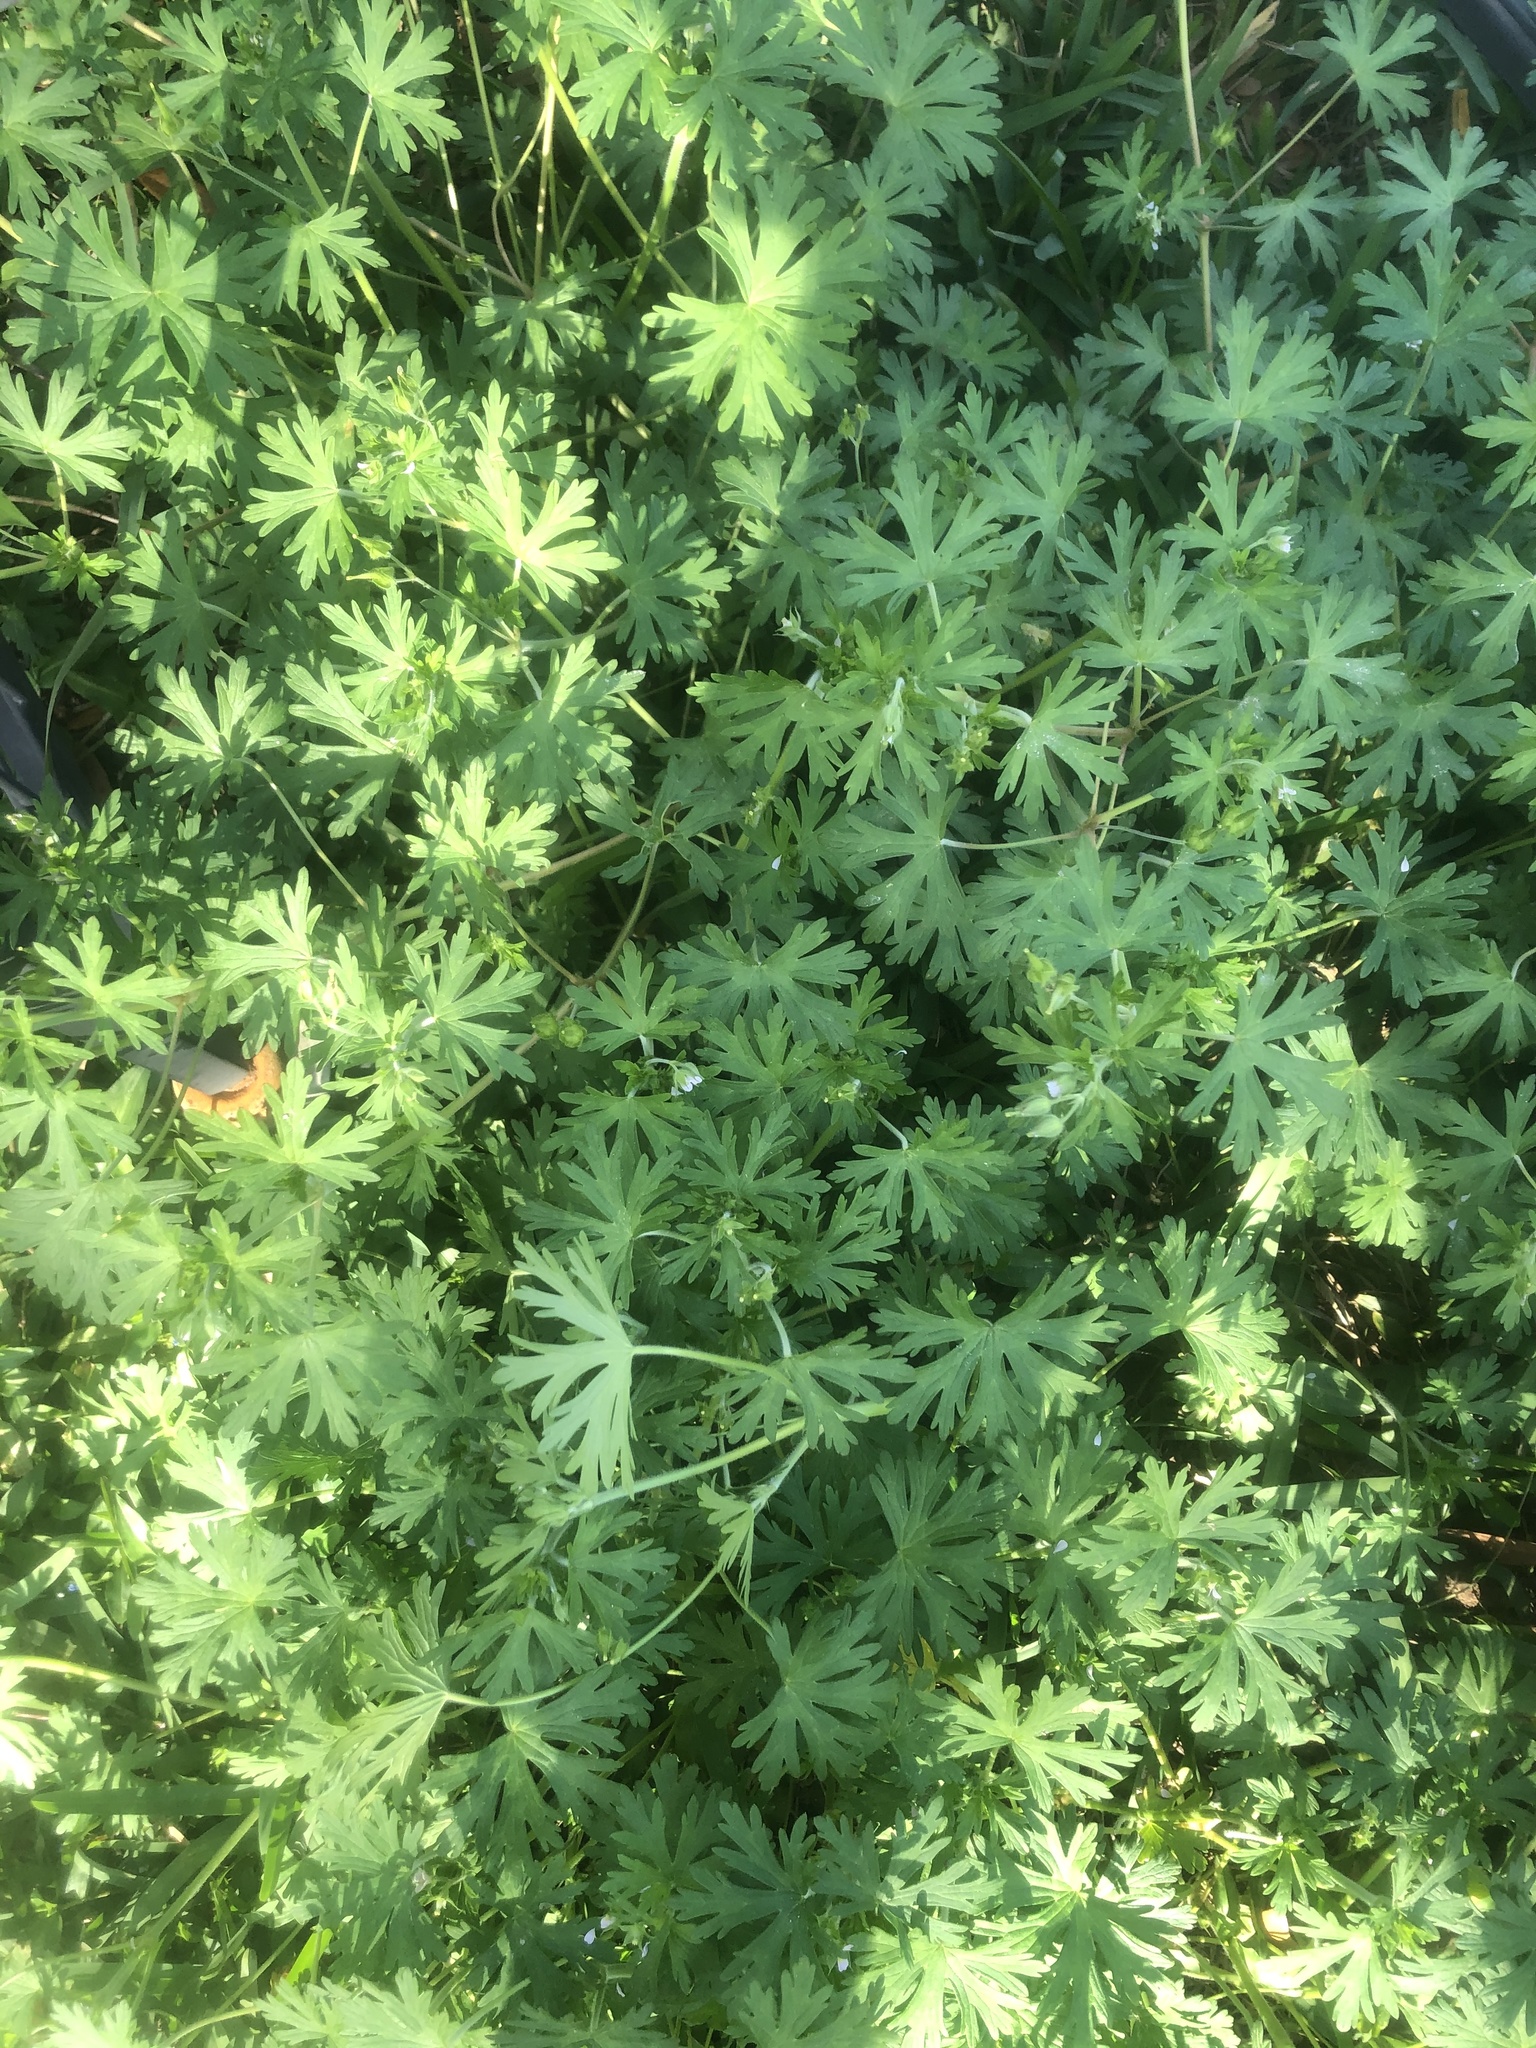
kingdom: Plantae
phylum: Tracheophyta
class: Magnoliopsida
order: Geraniales
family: Geraniaceae
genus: Geranium
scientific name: Geranium carolinianum
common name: Carolina crane's-bill
